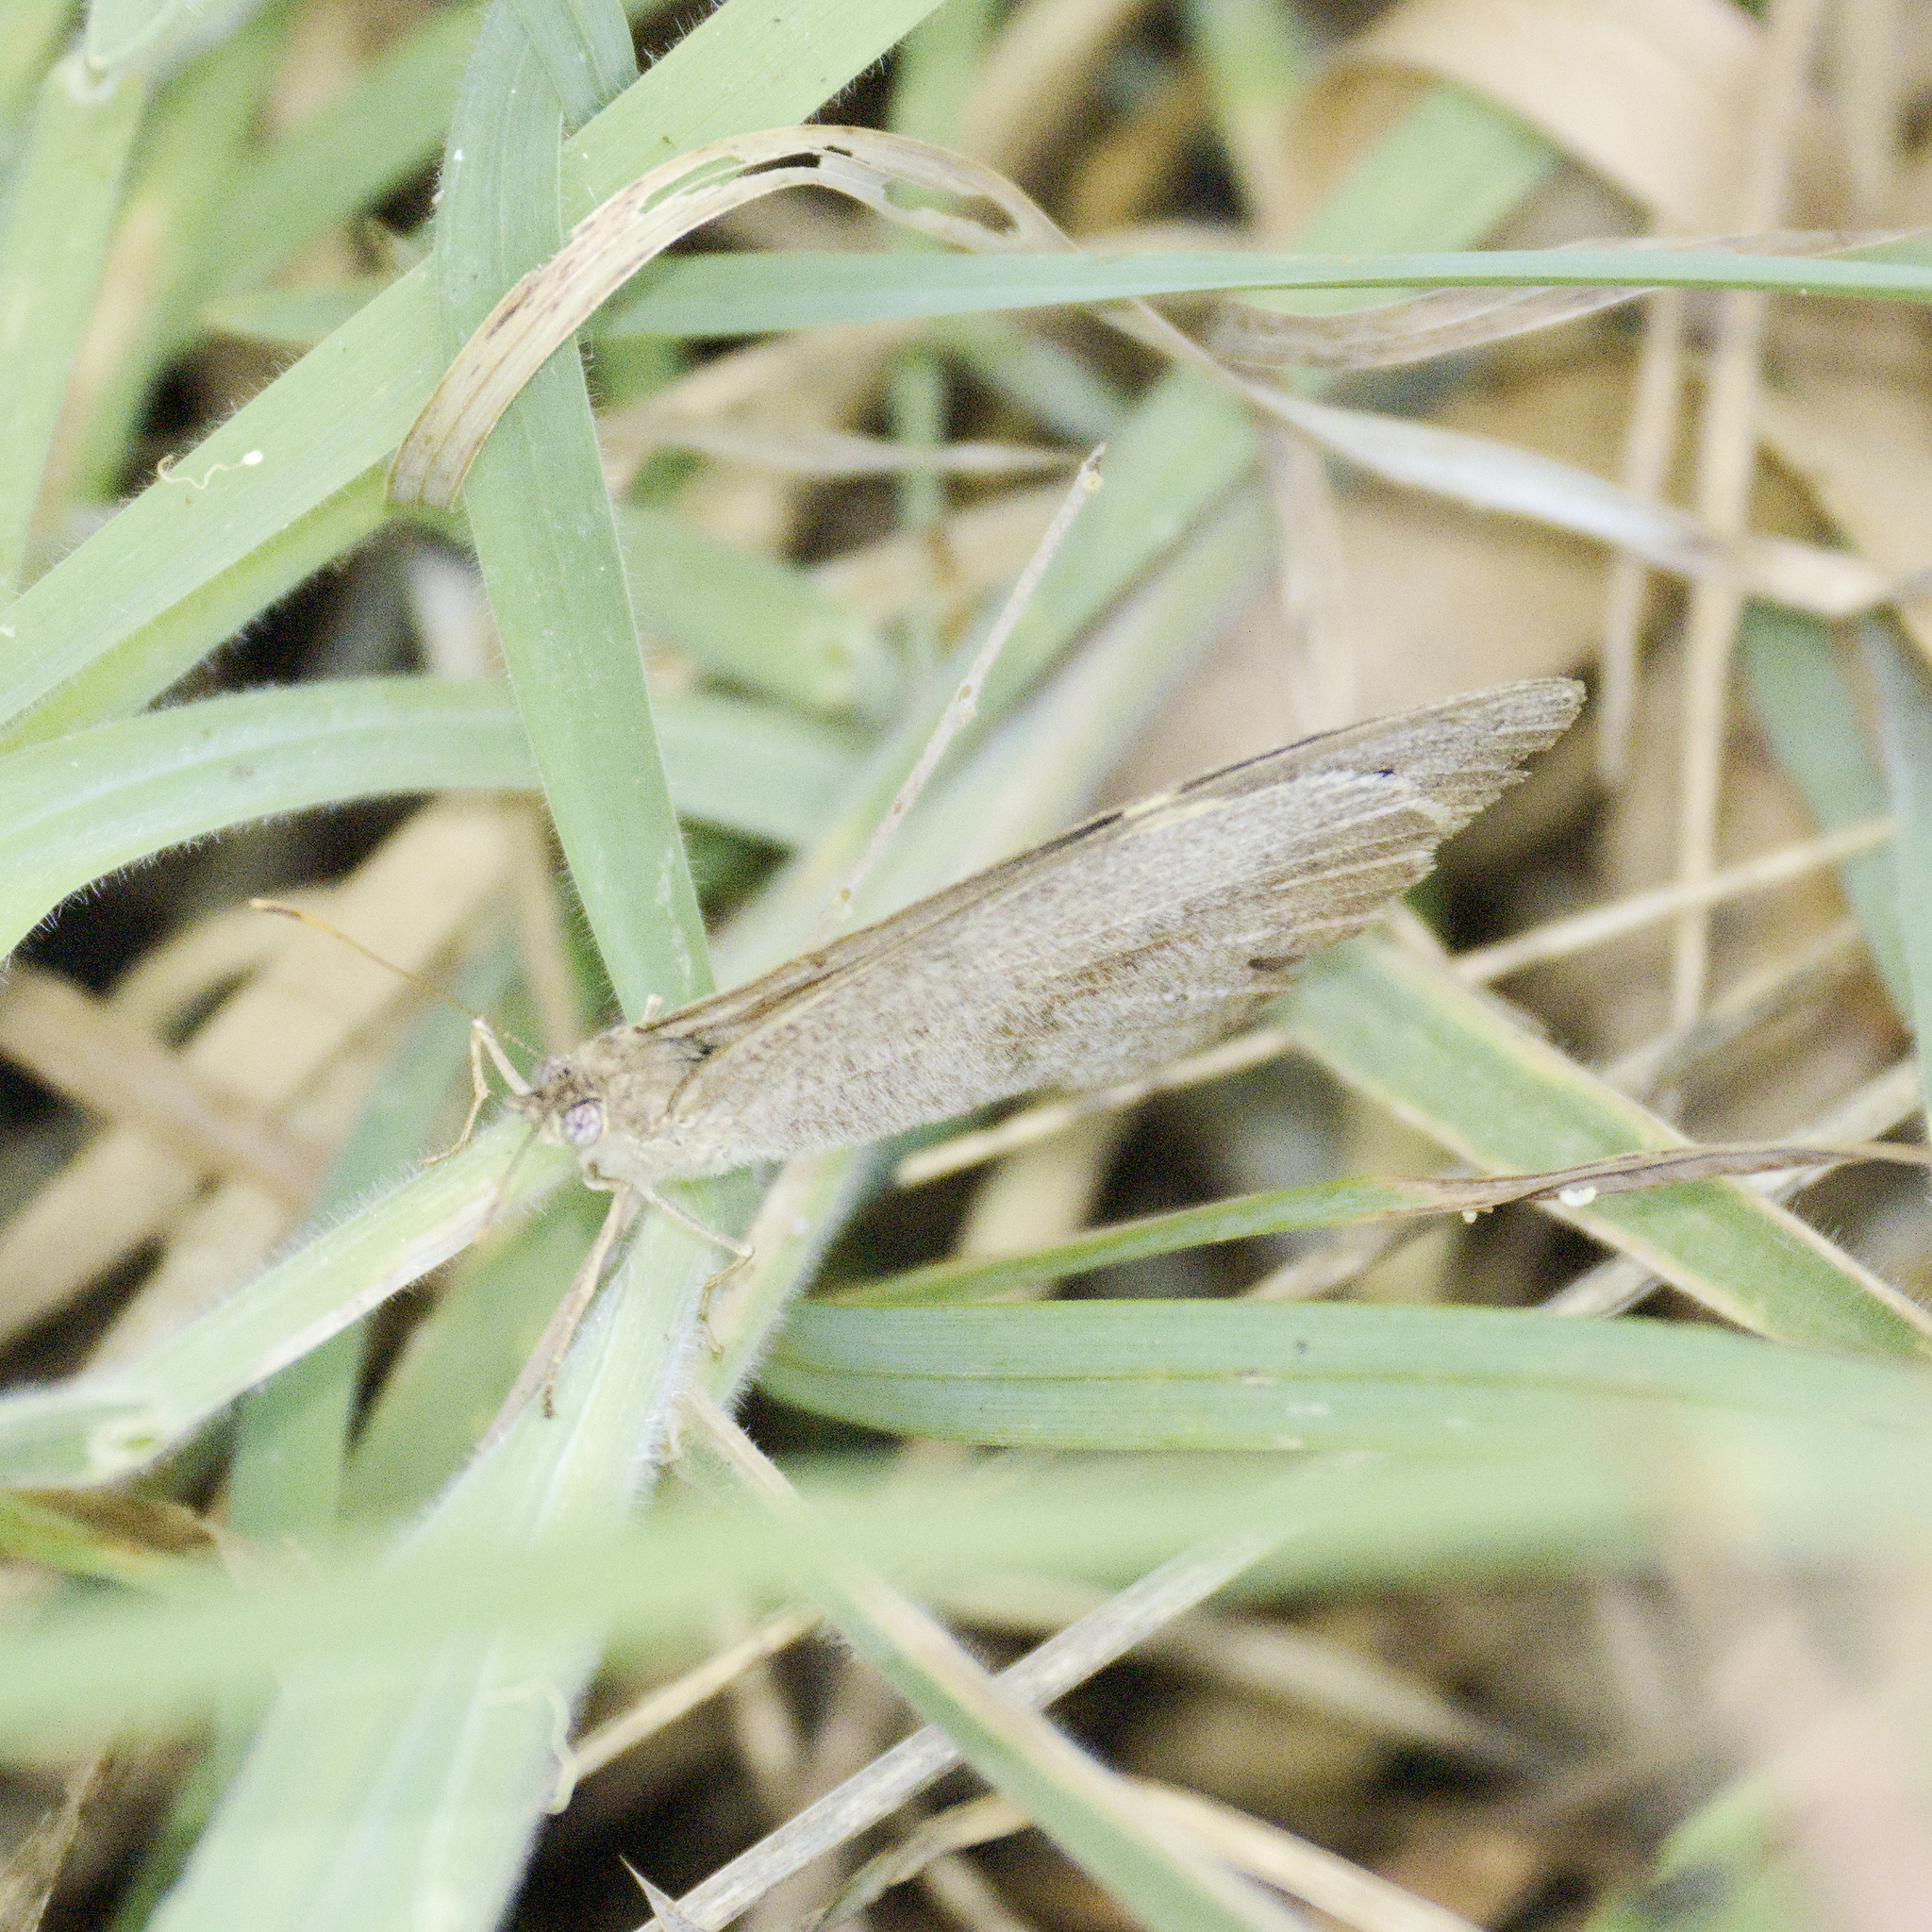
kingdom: Animalia
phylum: Arthropoda
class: Insecta
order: Lepidoptera
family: Nymphalidae
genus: Heteronympha
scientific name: Heteronympha merope
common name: Common brown
